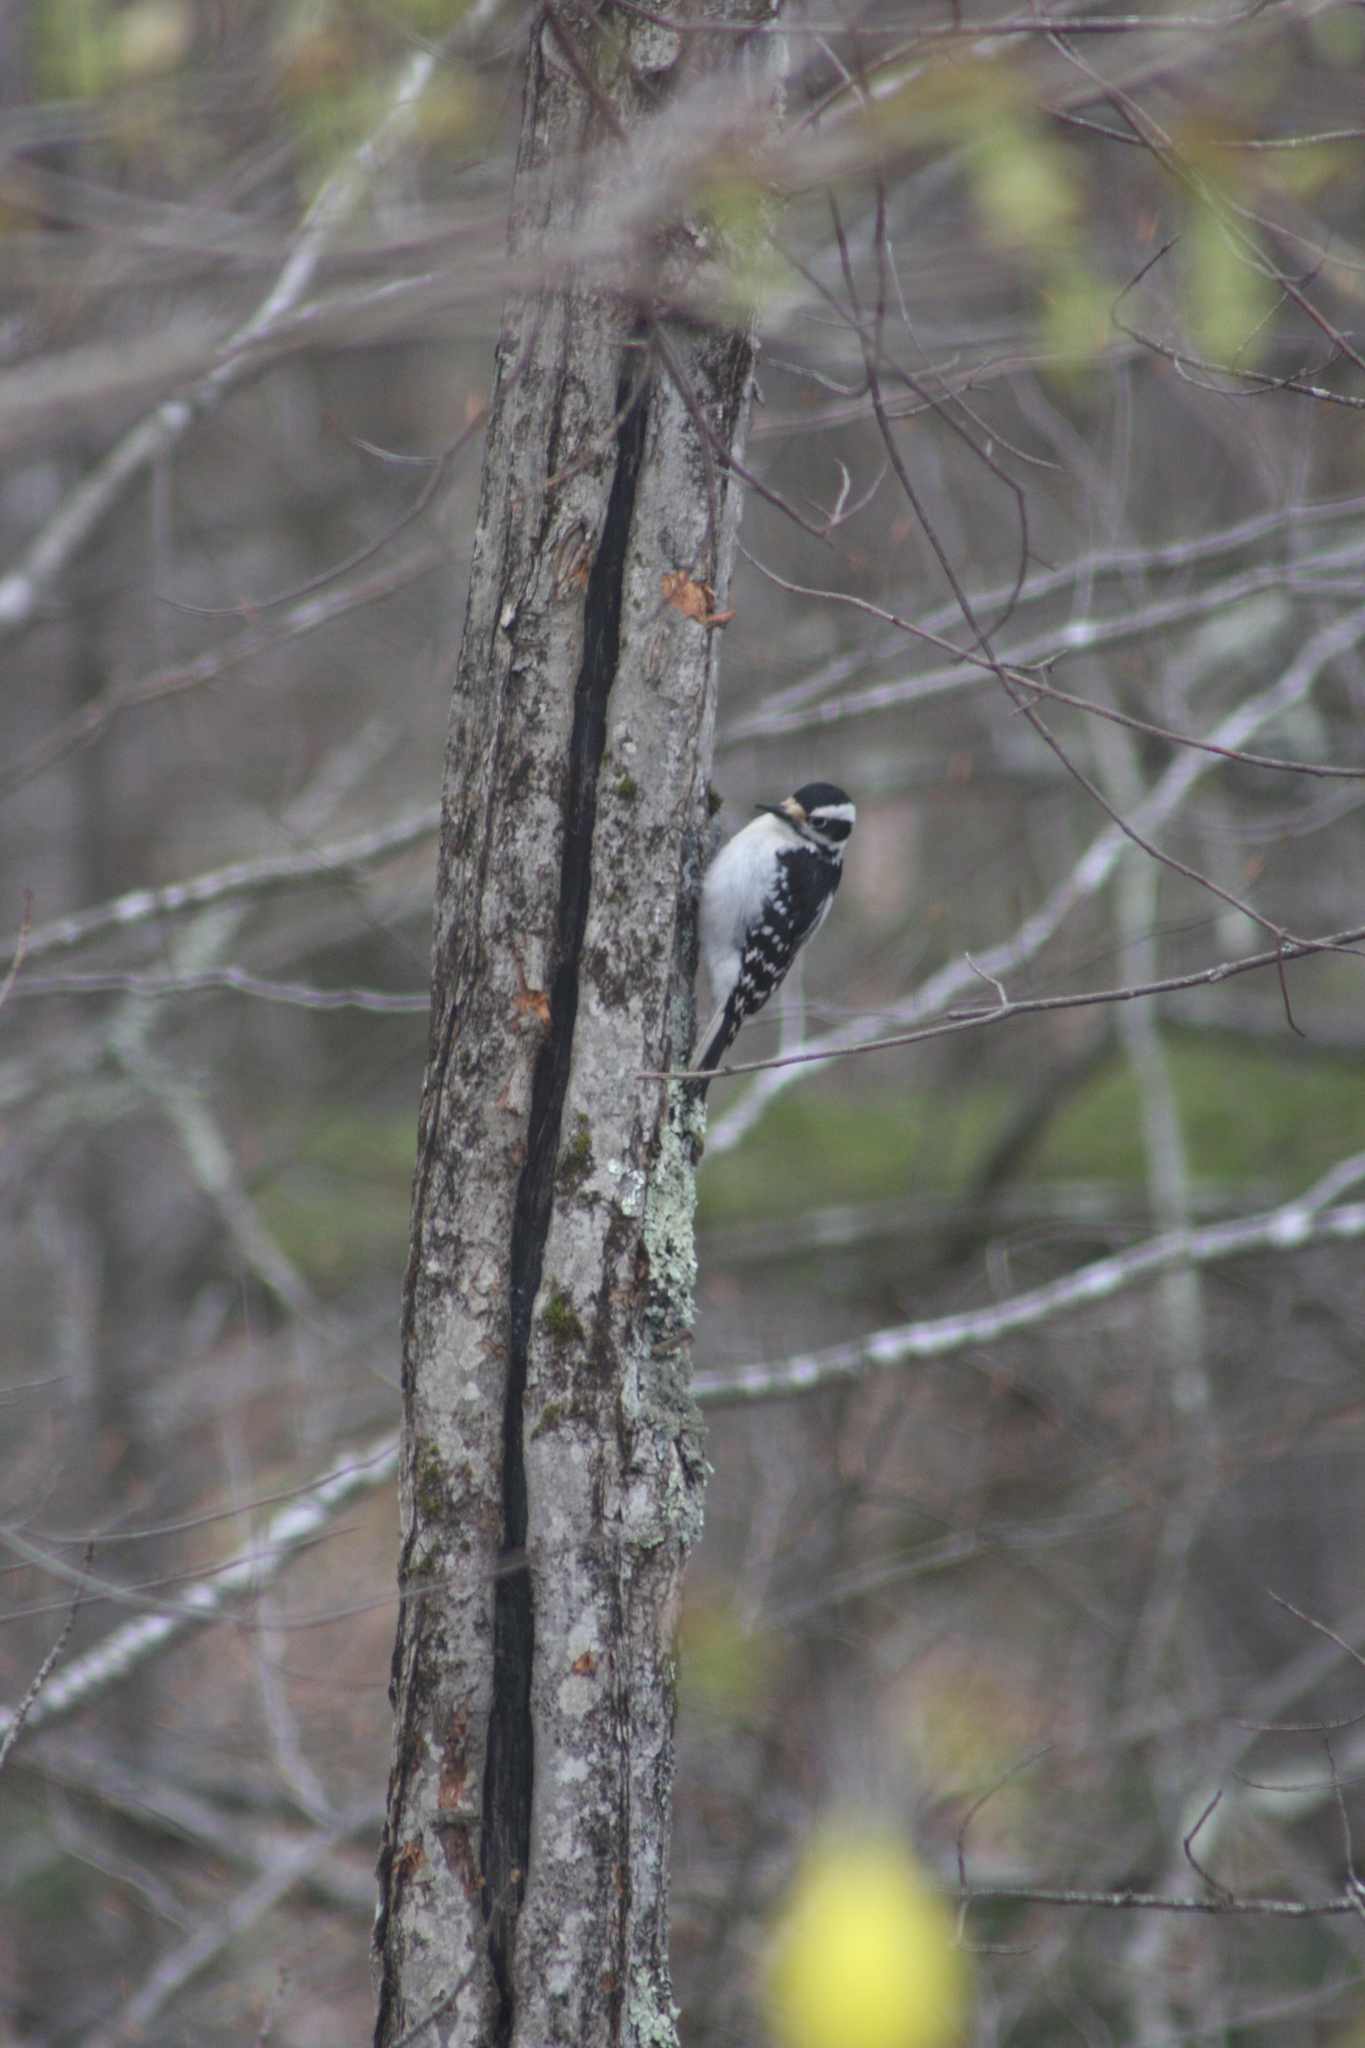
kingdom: Animalia
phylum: Chordata
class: Aves
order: Piciformes
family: Picidae
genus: Dryobates
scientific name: Dryobates pubescens
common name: Downy woodpecker
